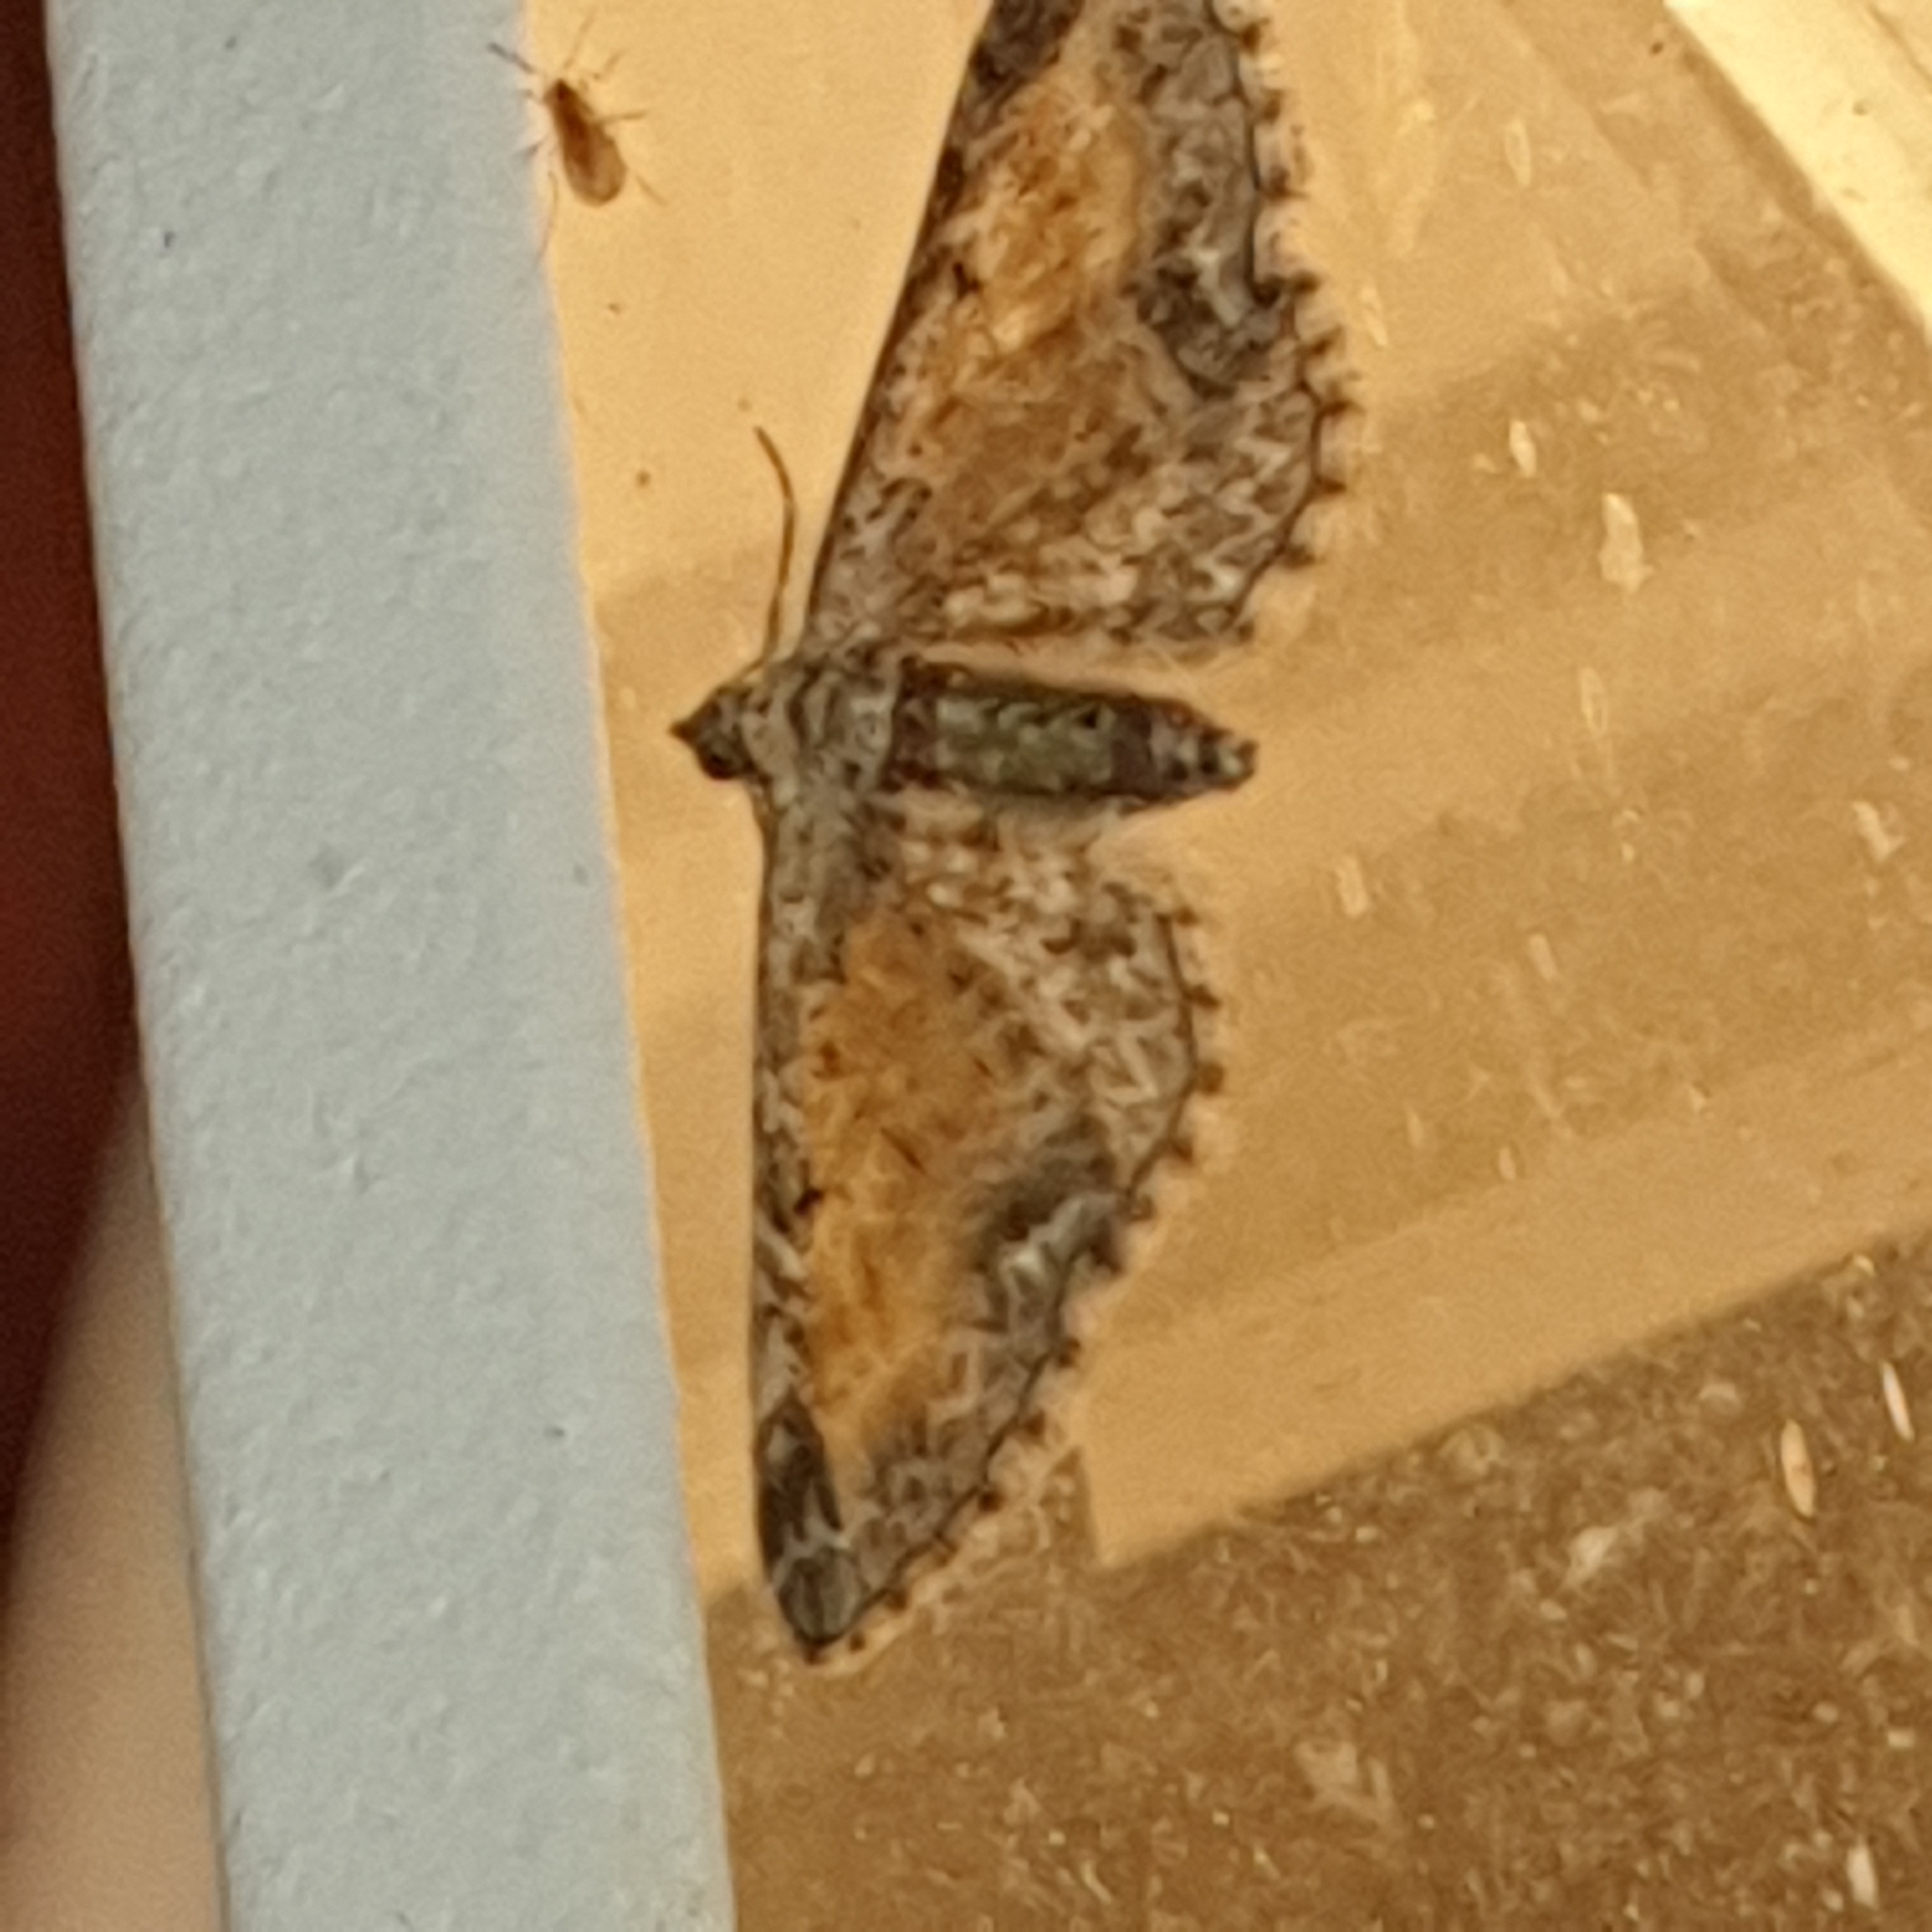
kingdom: Animalia
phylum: Arthropoda
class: Insecta
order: Lepidoptera
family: Geometridae
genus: Eupithecia
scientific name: Eupithecia icterata
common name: Tawny speckled pug
